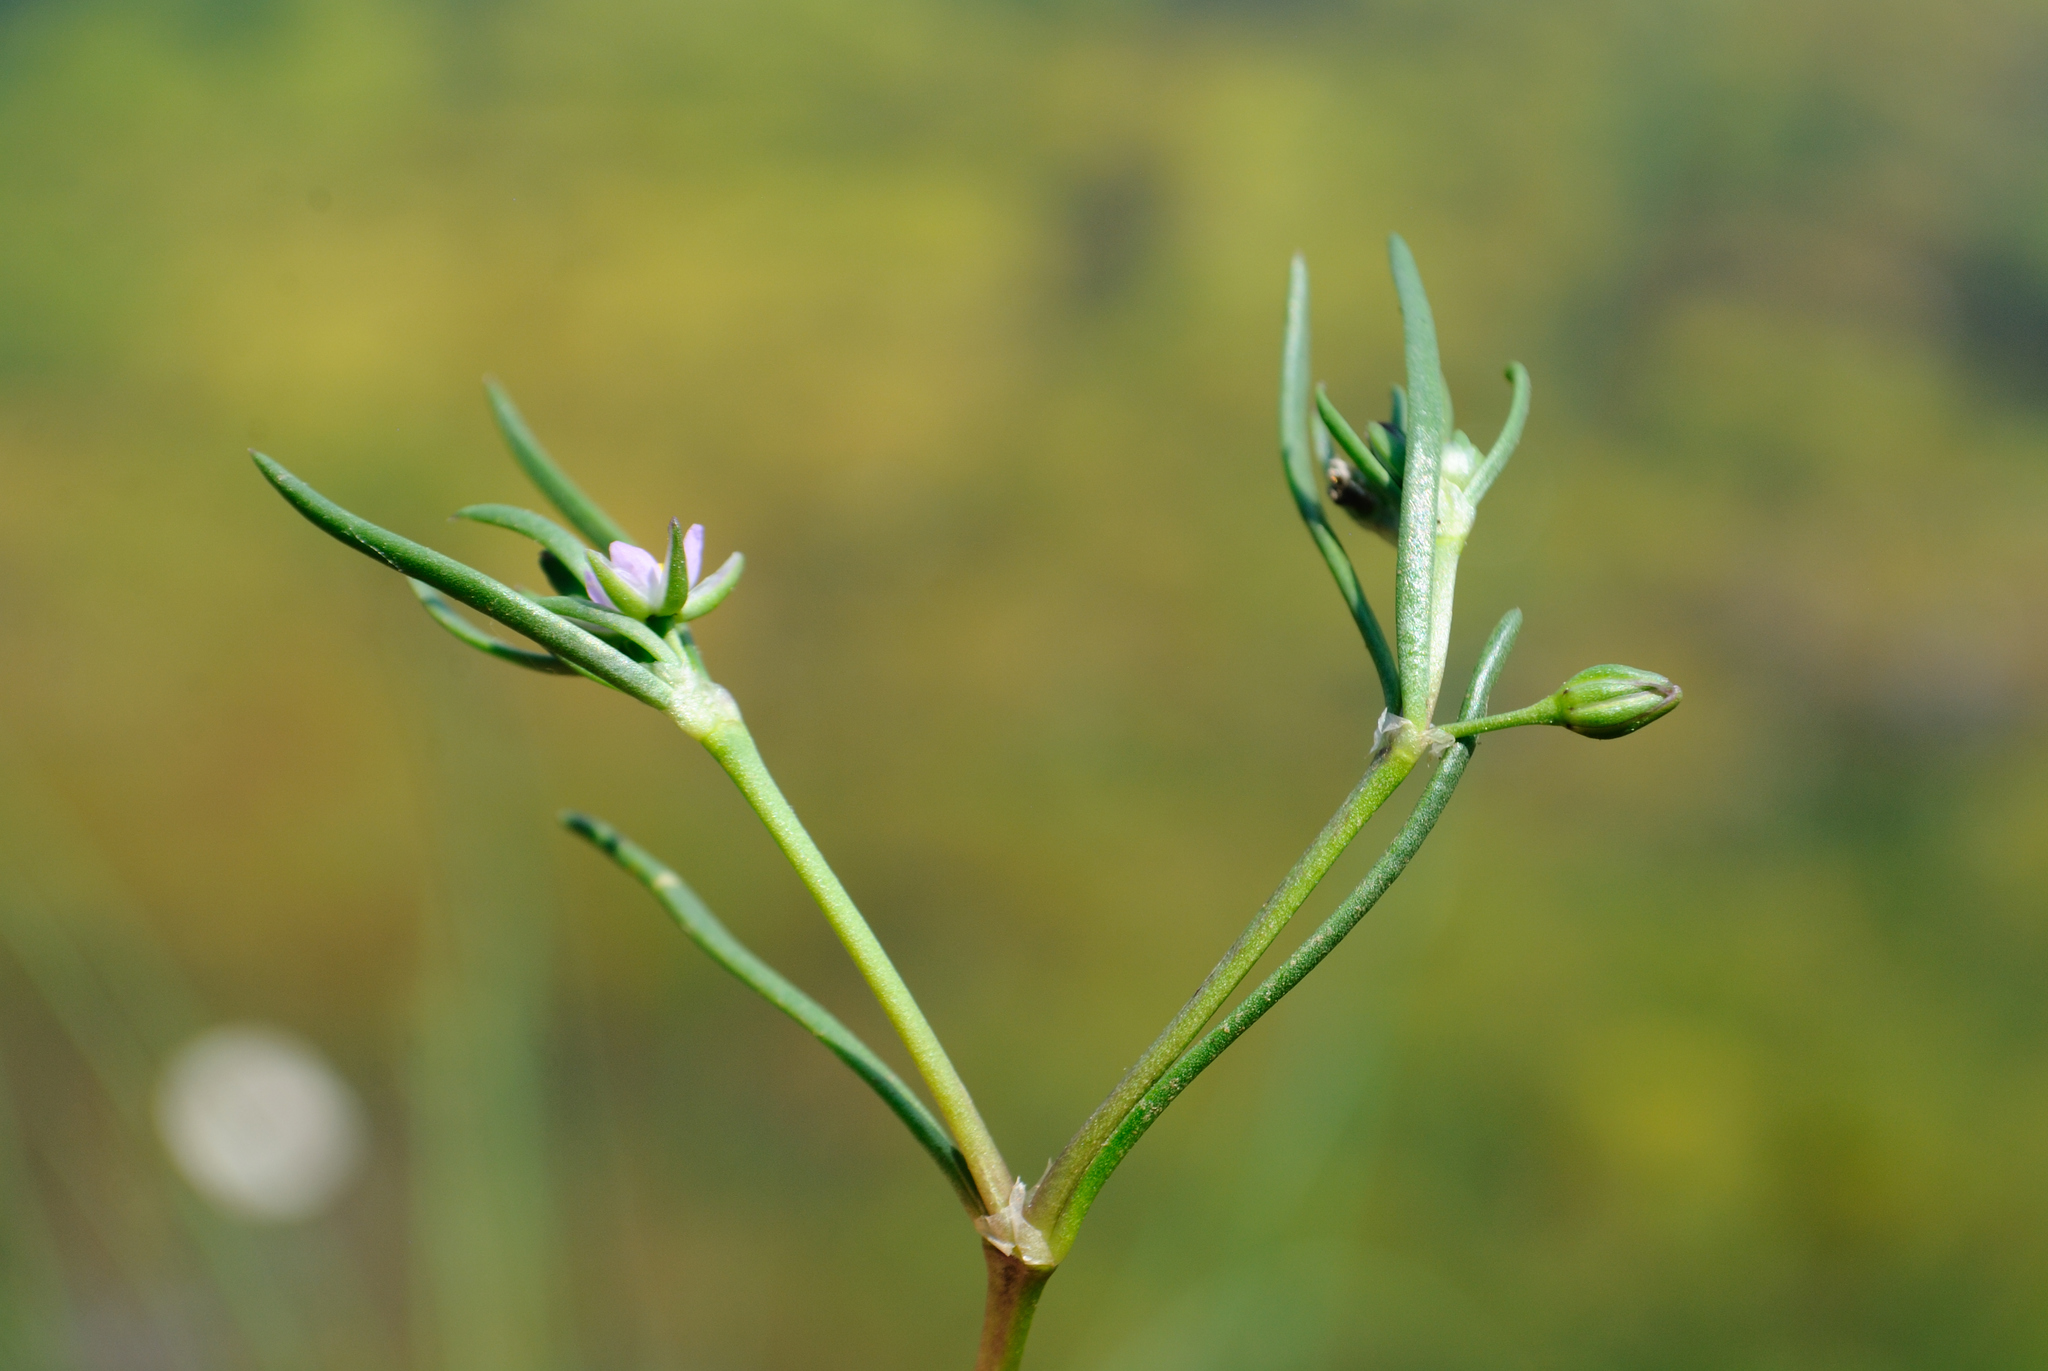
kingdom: Plantae
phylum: Tracheophyta
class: Magnoliopsida
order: Caryophyllales
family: Caryophyllaceae
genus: Spergularia
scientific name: Spergularia marina
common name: Lesser sea-spurrey
